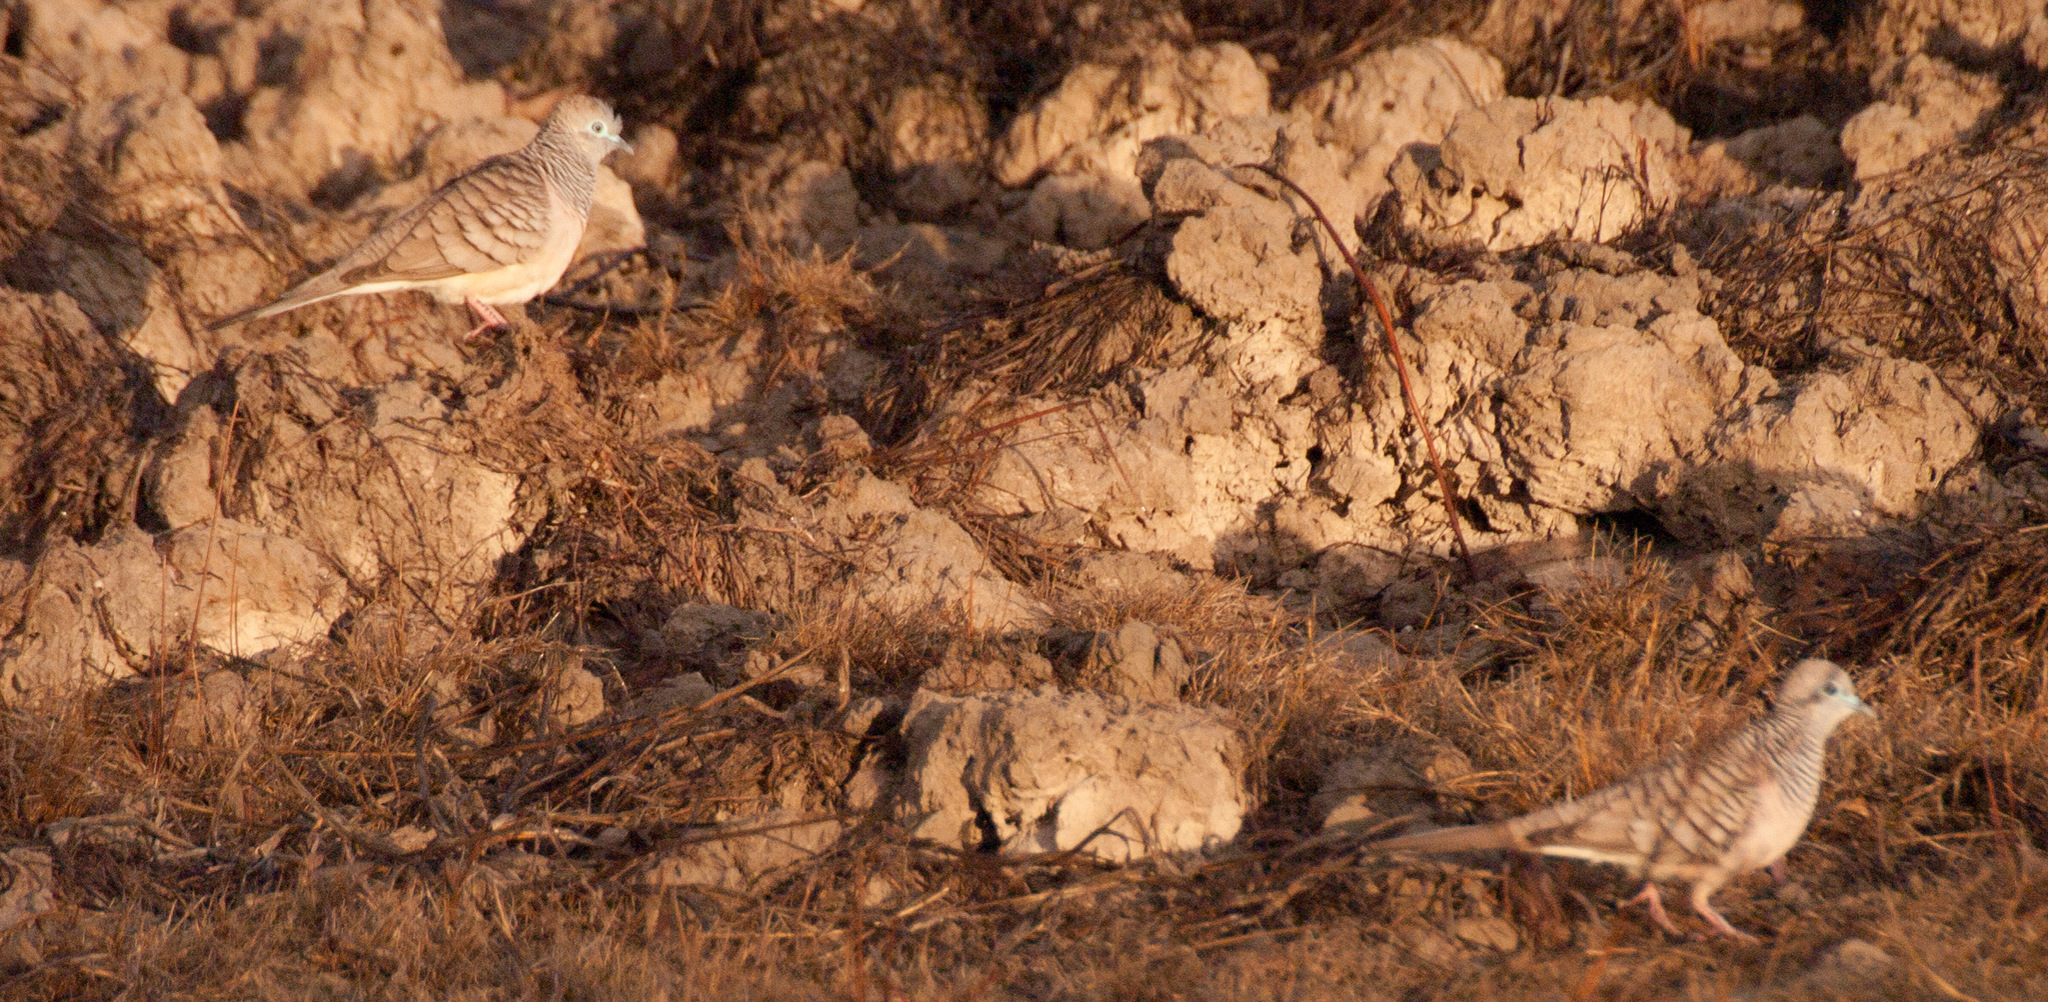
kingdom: Animalia
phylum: Chordata
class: Aves
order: Columbiformes
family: Columbidae
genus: Geopelia
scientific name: Geopelia placida
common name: Peaceful dove
